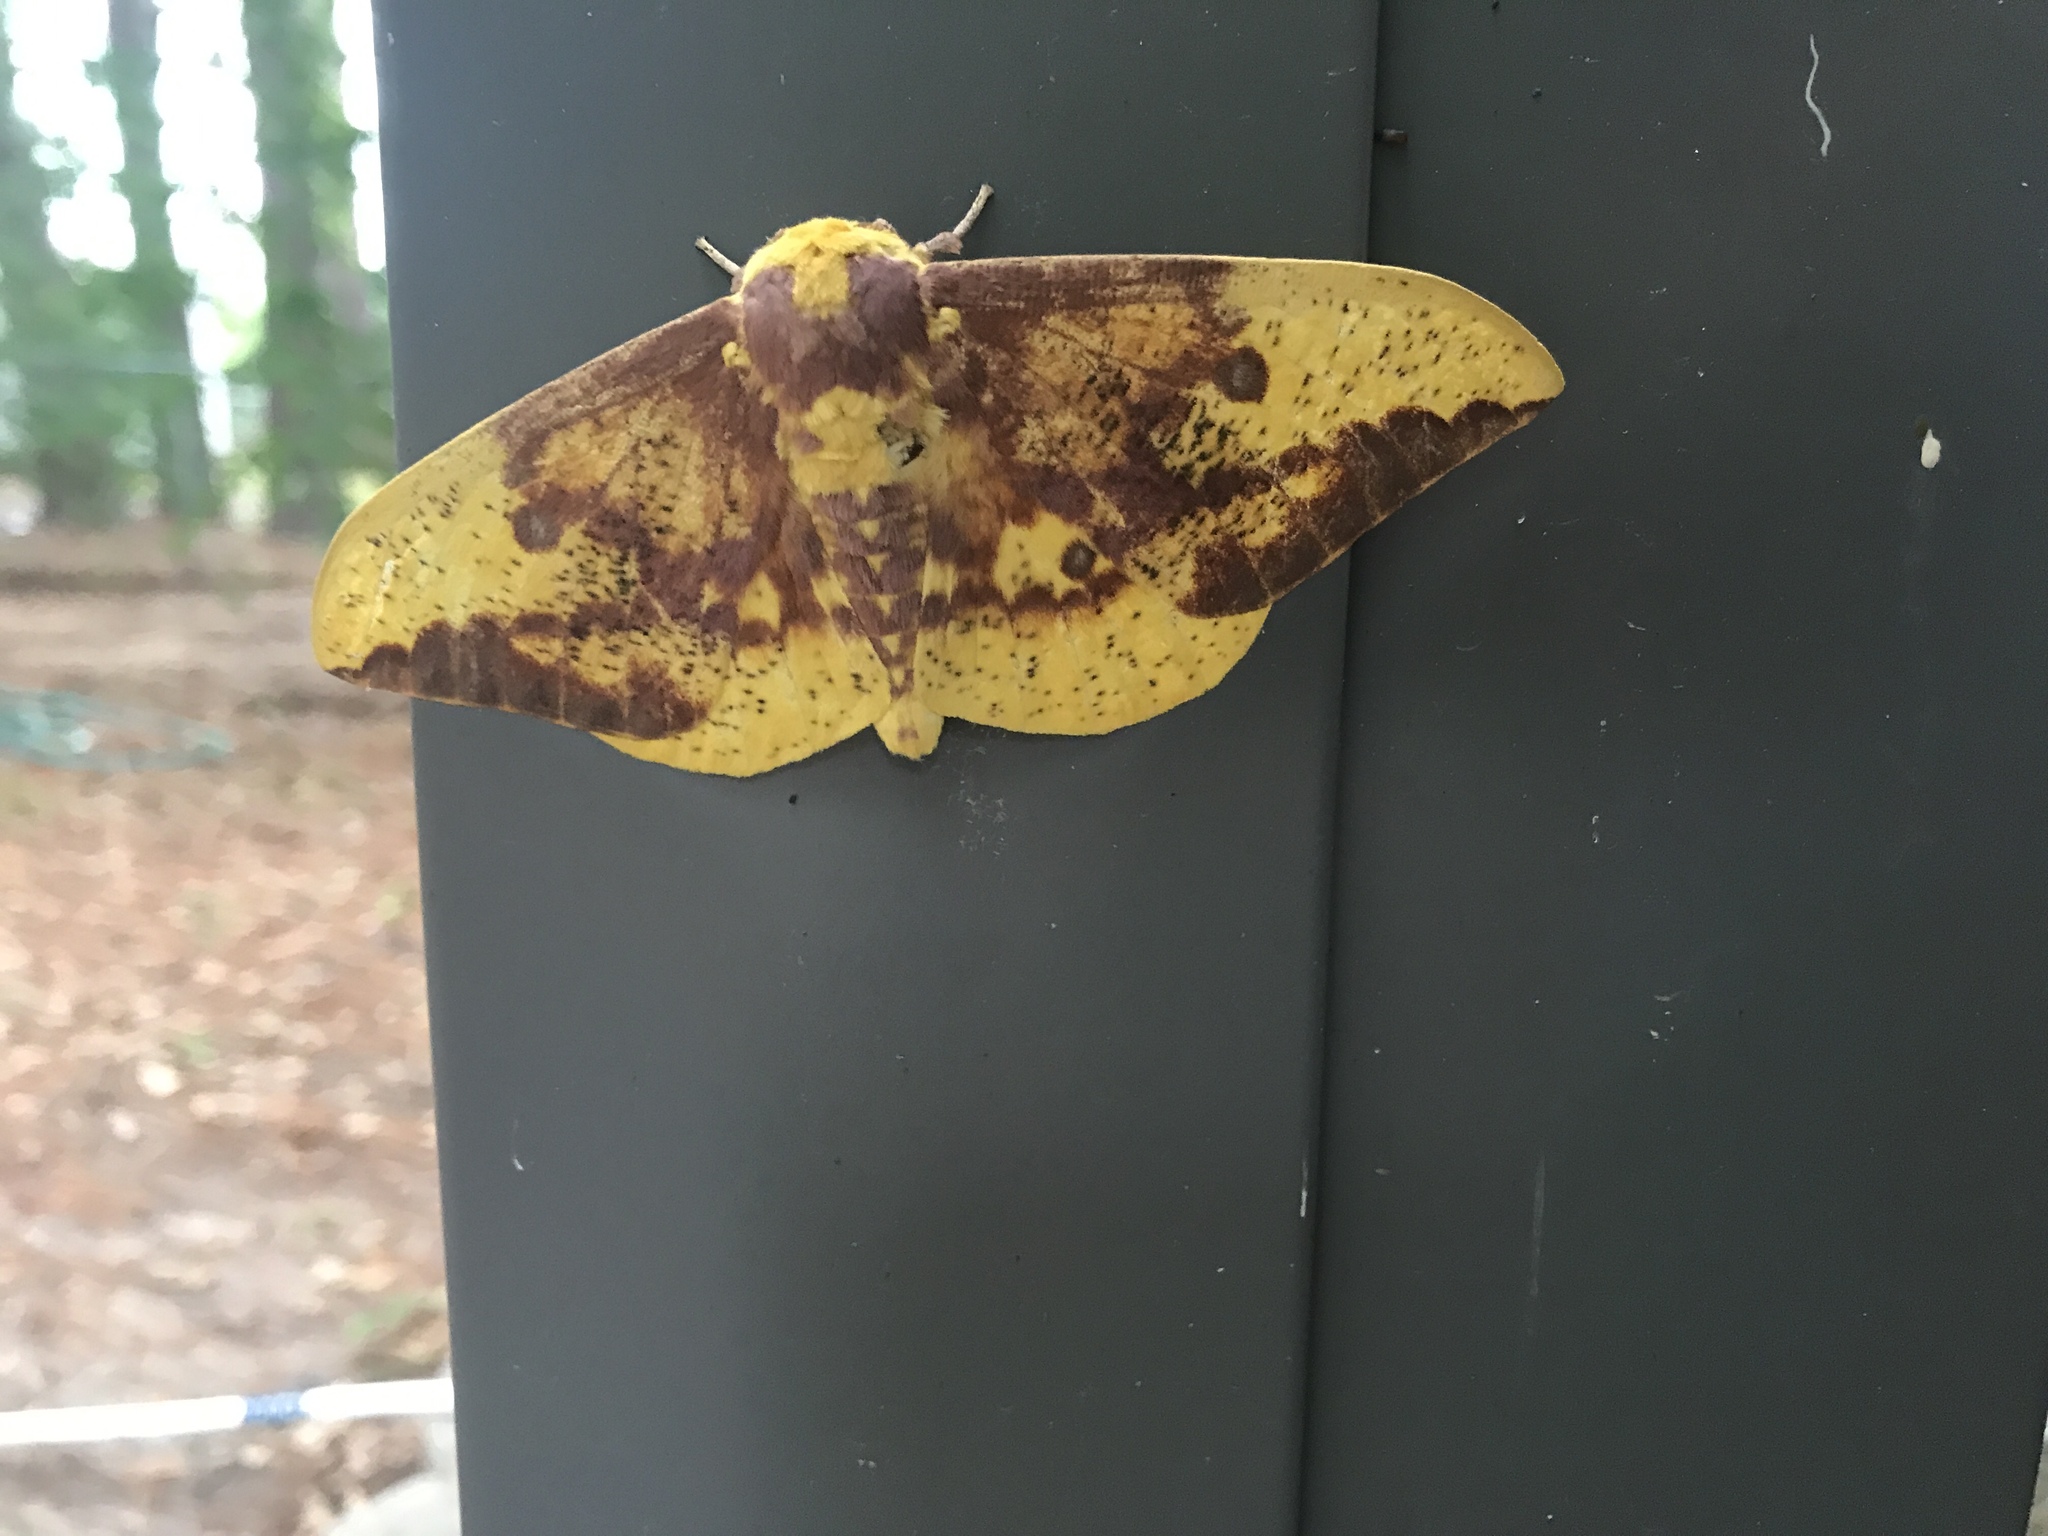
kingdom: Animalia
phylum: Arthropoda
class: Insecta
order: Lepidoptera
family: Saturniidae
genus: Eacles
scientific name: Eacles imperialis
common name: Imperial moth
